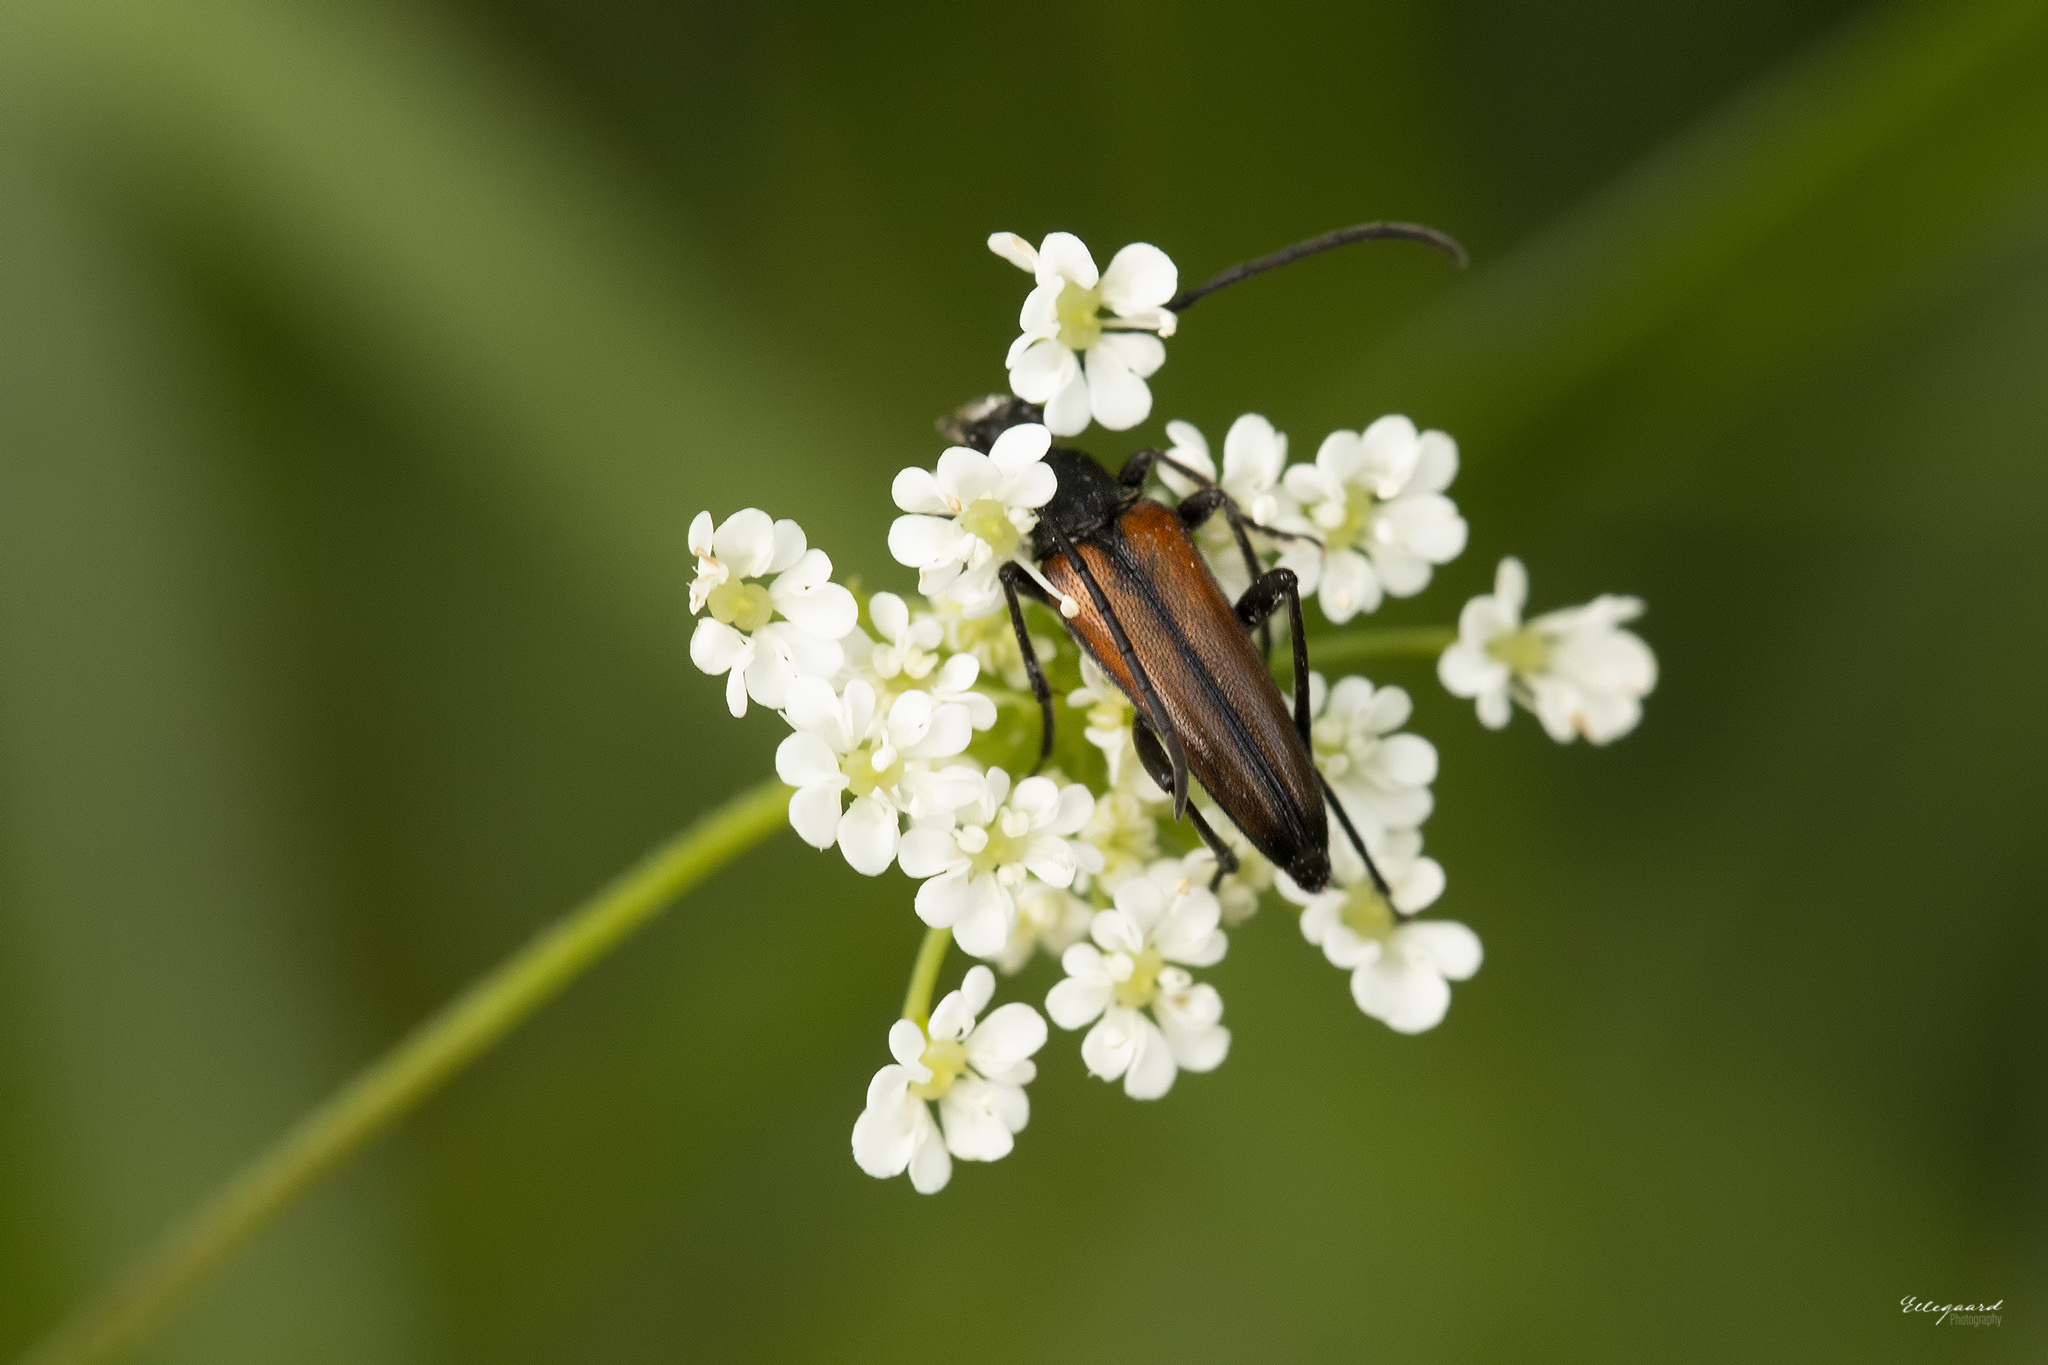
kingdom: Animalia
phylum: Arthropoda
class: Insecta
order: Coleoptera
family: Cerambycidae
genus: Stenurella
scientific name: Stenurella melanura
